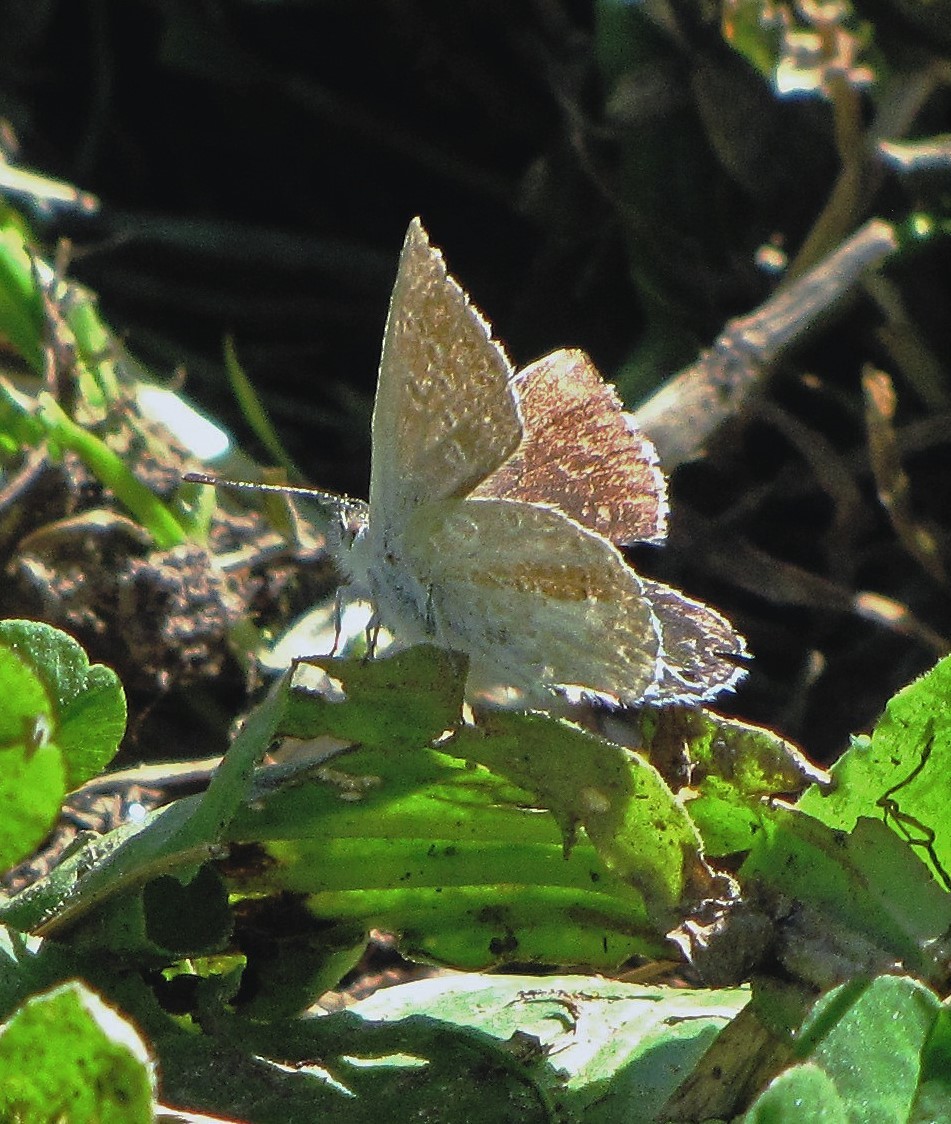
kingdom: Animalia
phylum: Arthropoda
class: Insecta
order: Lepidoptera
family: Lycaenidae
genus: Itylos
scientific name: Itylos moza
